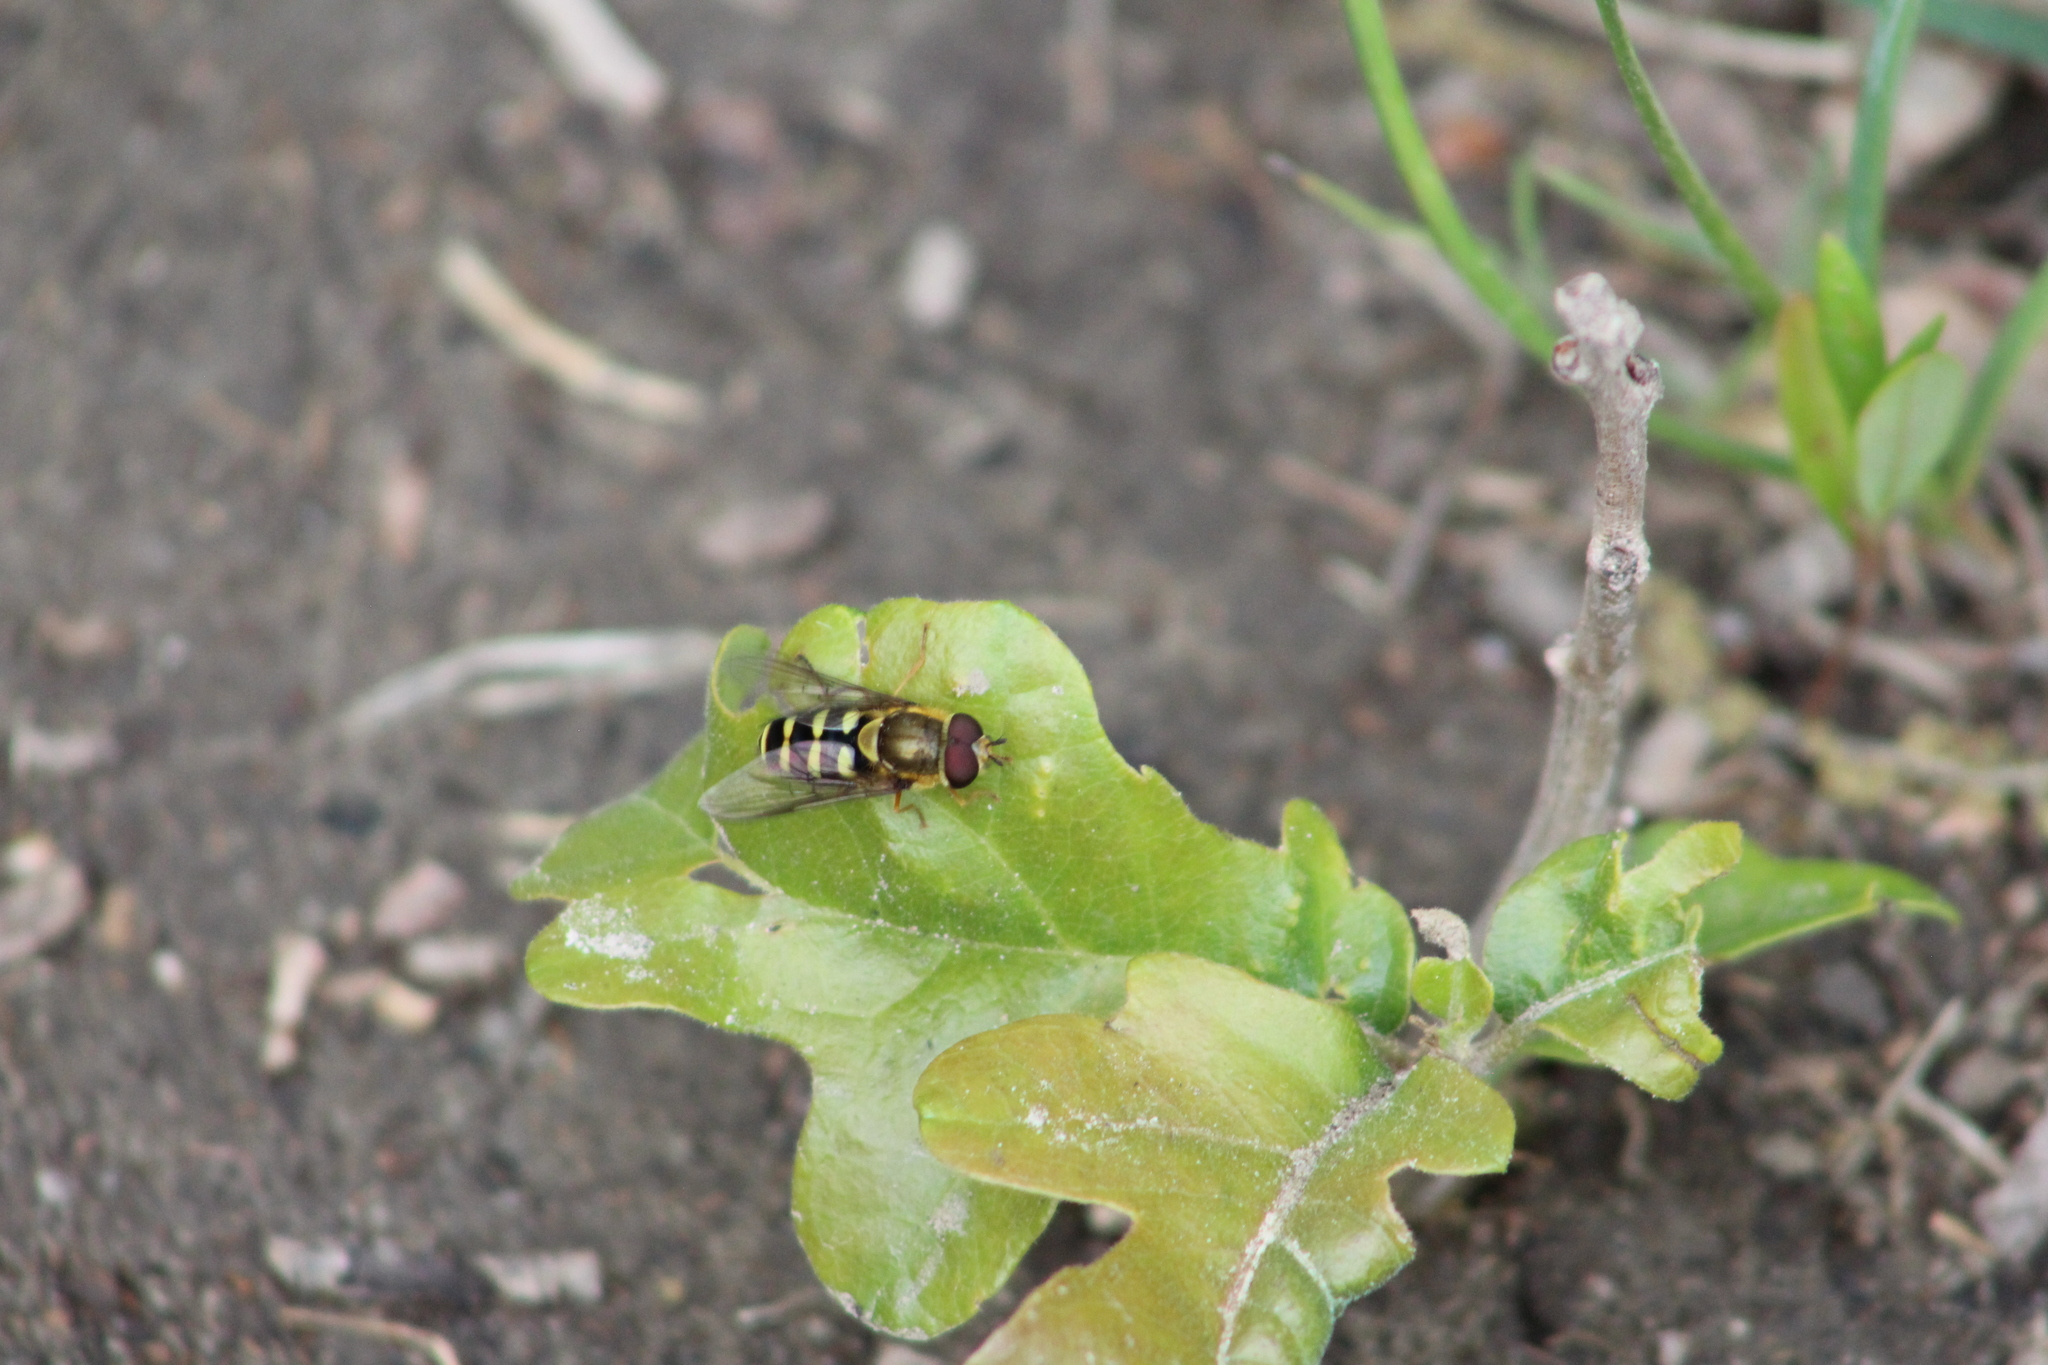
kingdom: Animalia
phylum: Arthropoda
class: Insecta
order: Diptera
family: Syrphidae
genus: Syrphus
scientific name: Syrphus opinator
